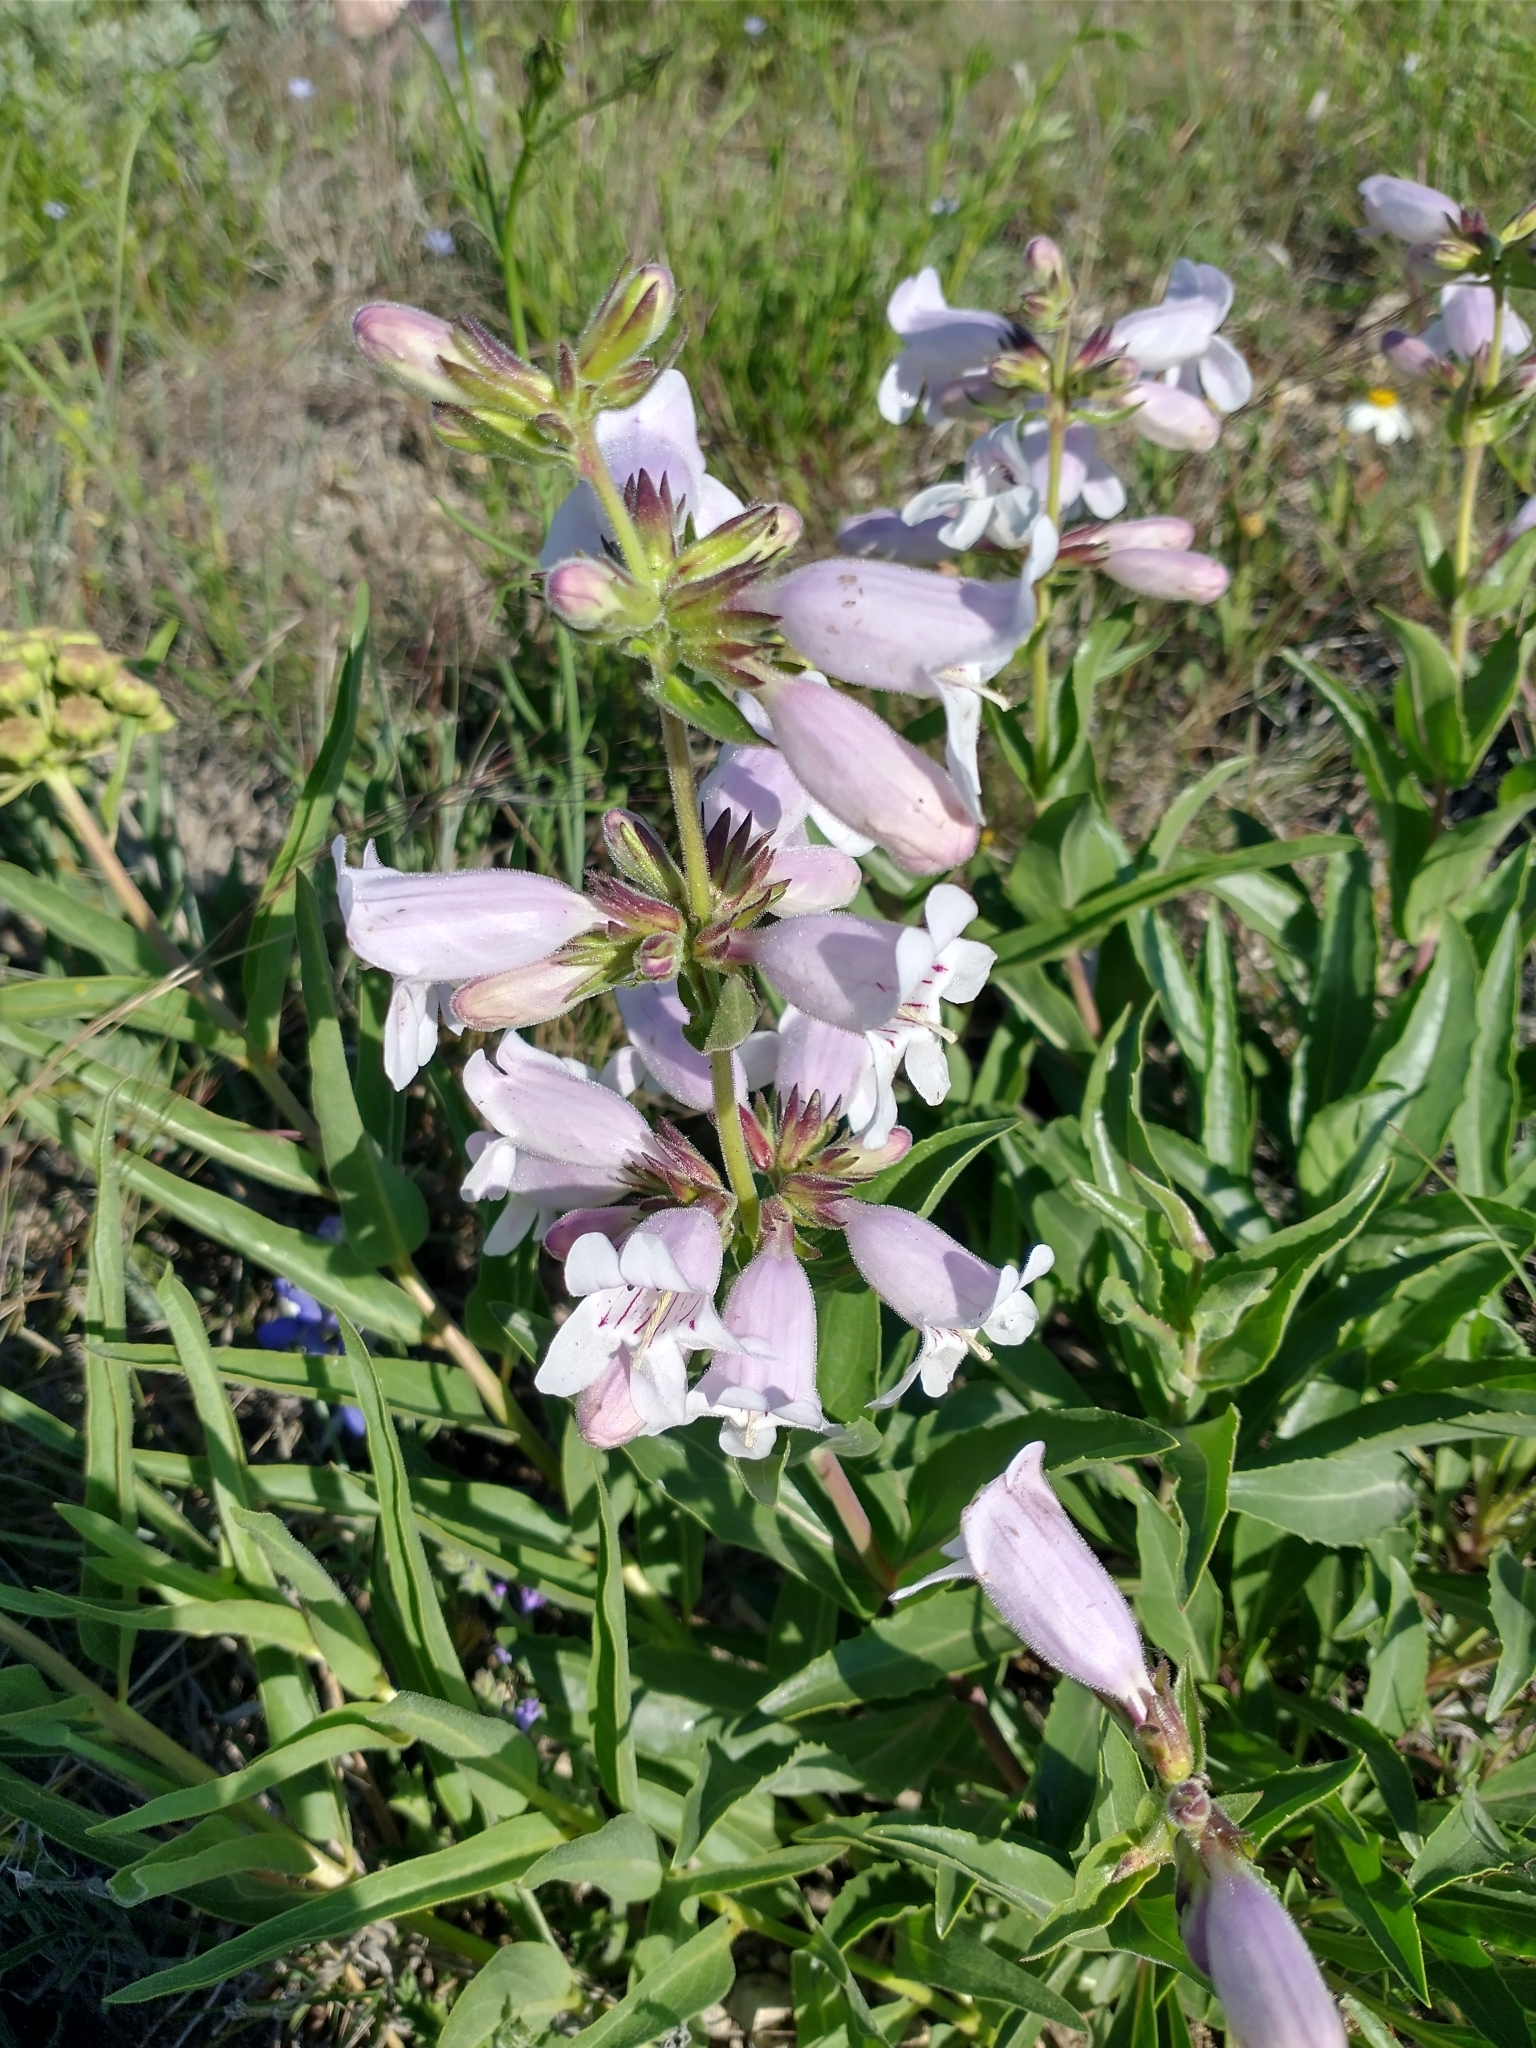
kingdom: Plantae
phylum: Tracheophyta
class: Magnoliopsida
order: Lamiales
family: Plantaginaceae
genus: Penstemon
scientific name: Penstemon cobaea
